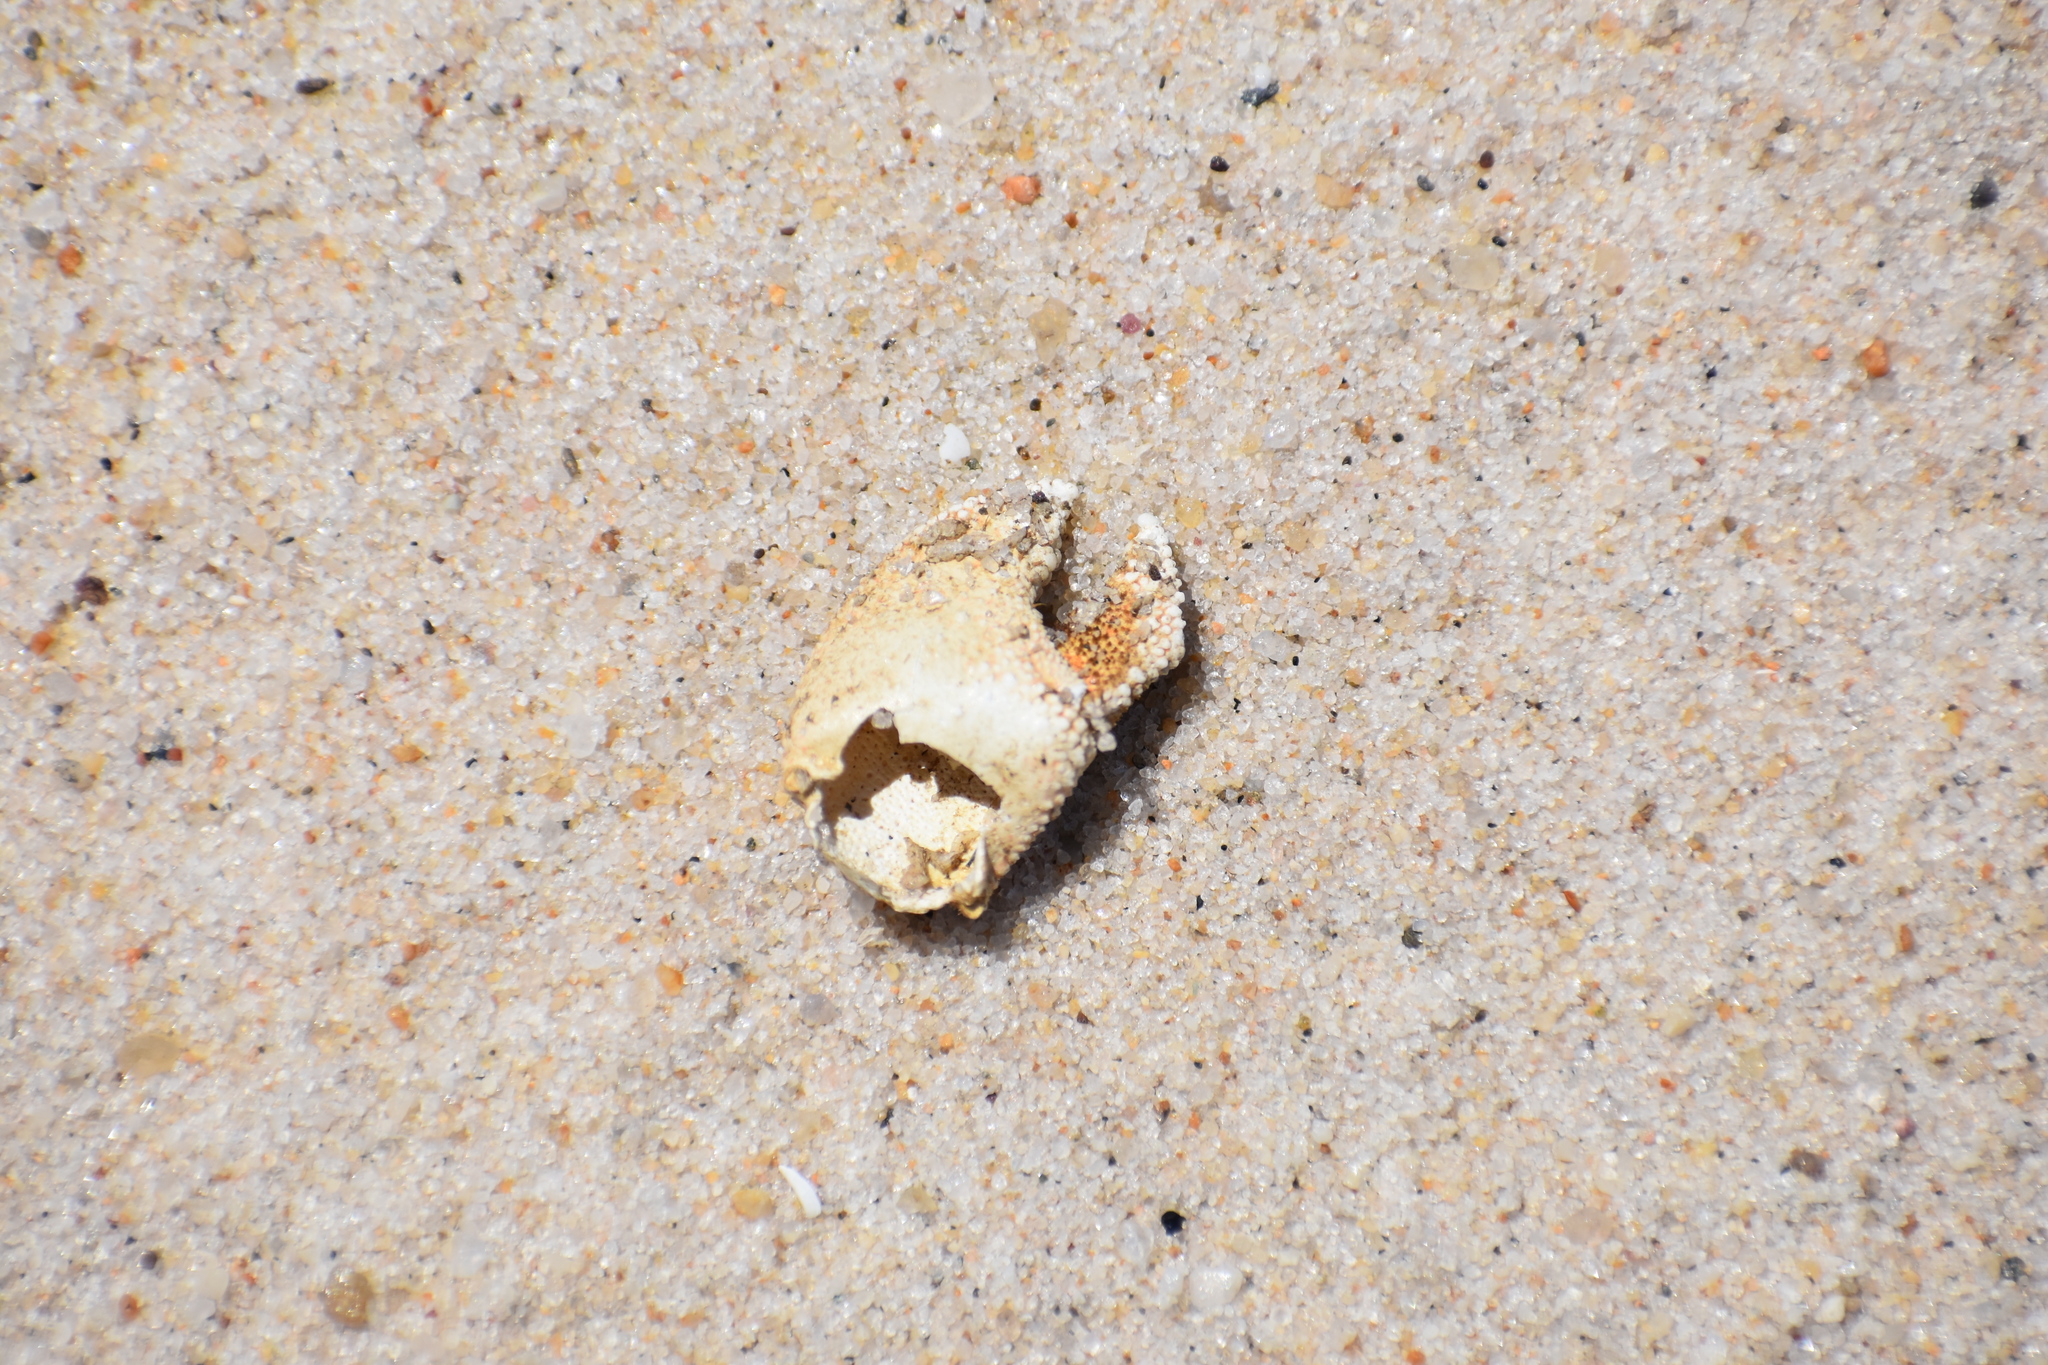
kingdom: Animalia
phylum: Arthropoda
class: Malacostraca
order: Decapoda
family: Paguridae
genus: Pagurus
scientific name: Pagurus pollicaris
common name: Flatclaw hermit
